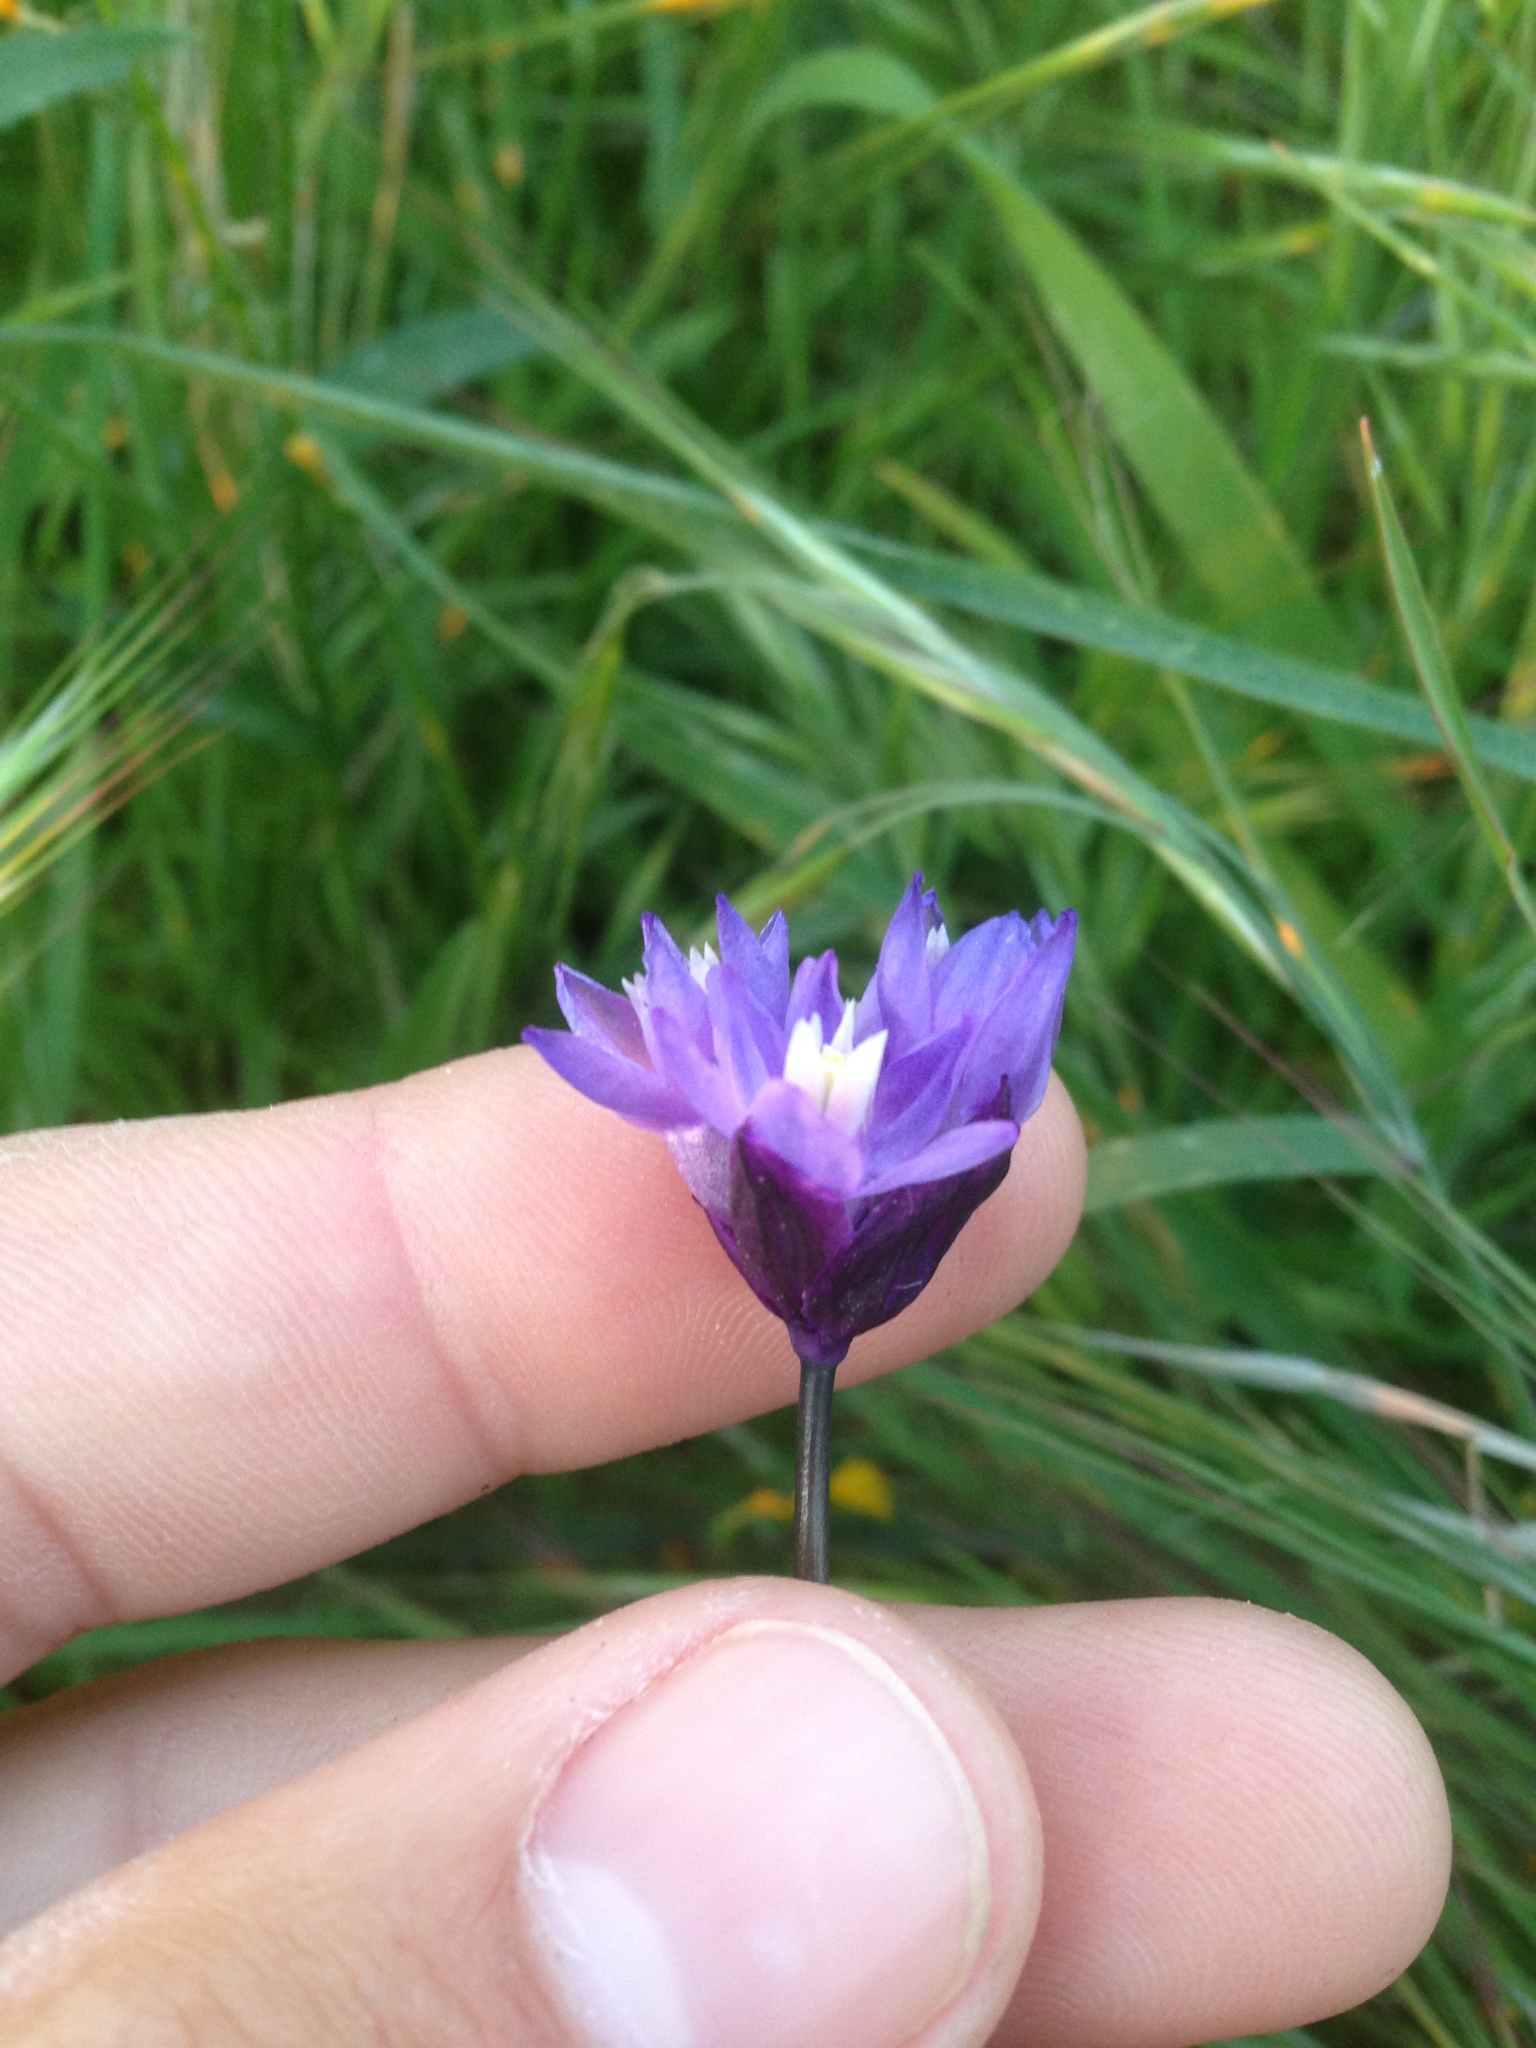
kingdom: Plantae
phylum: Tracheophyta
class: Liliopsida
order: Asparagales
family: Asparagaceae
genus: Dipterostemon
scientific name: Dipterostemon capitatus
